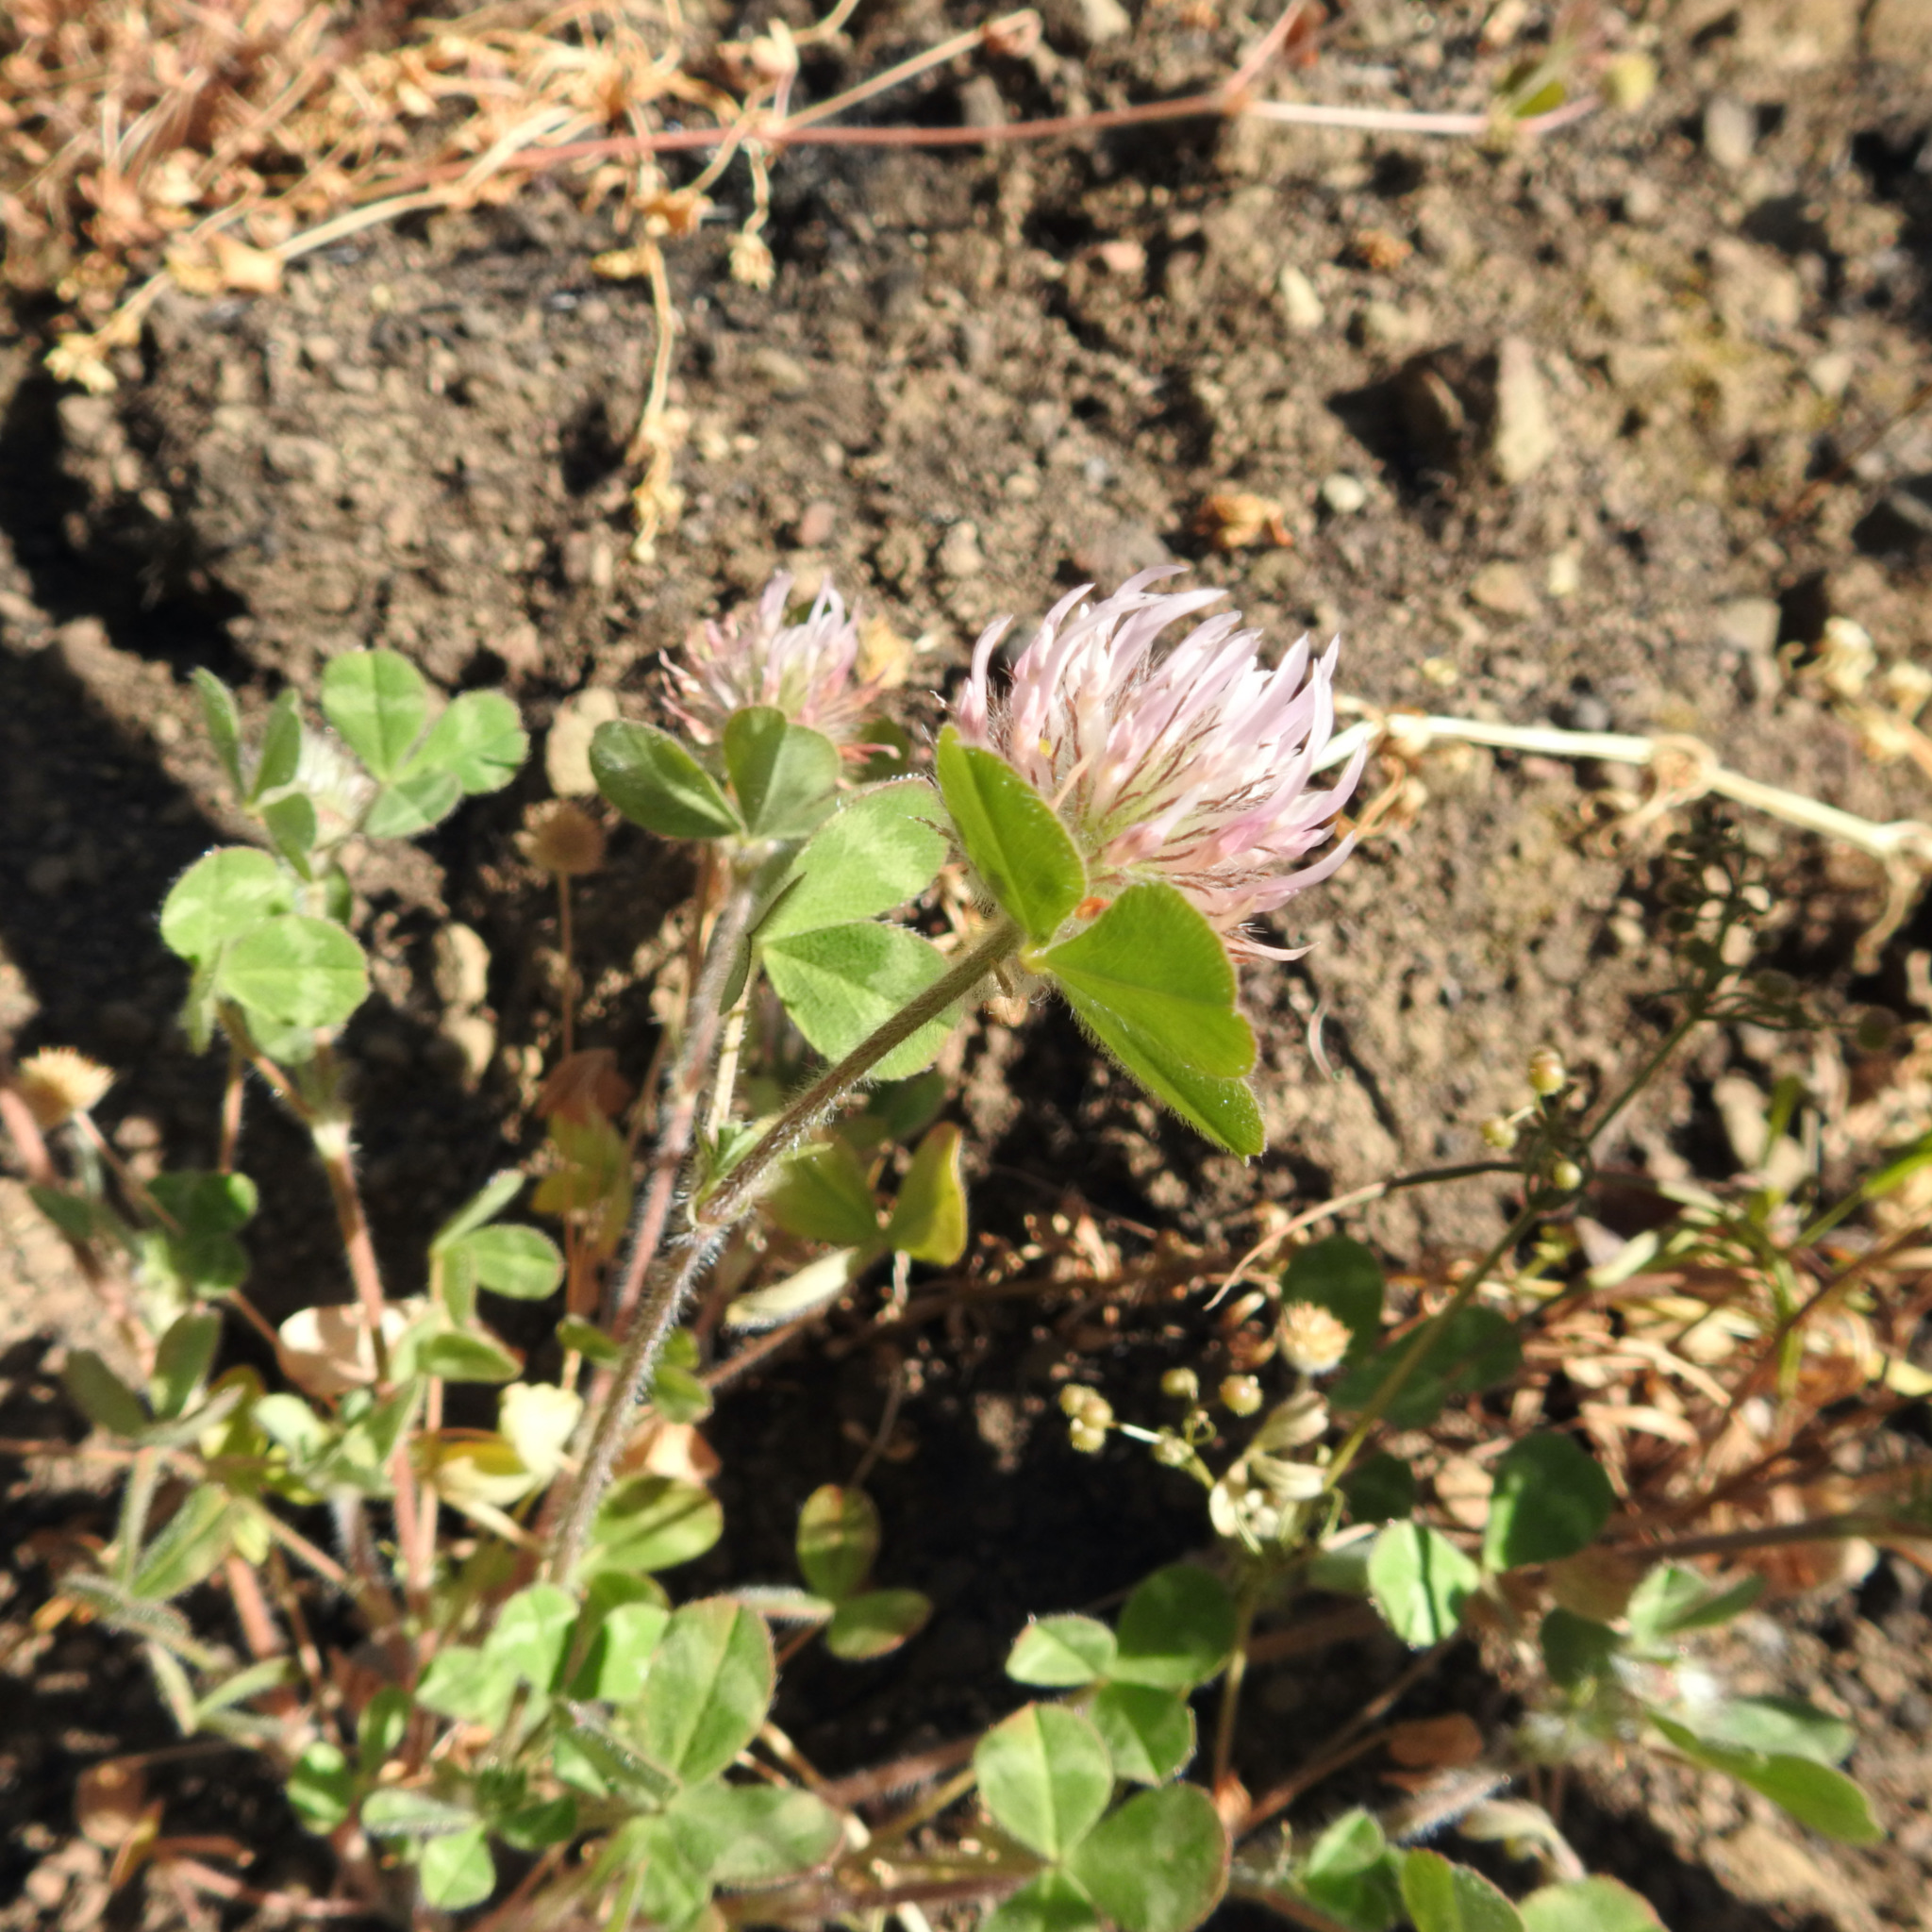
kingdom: Plantae
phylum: Tracheophyta
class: Magnoliopsida
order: Fabales
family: Fabaceae
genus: Trifolium
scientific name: Trifolium hirtum
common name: Rose clover
